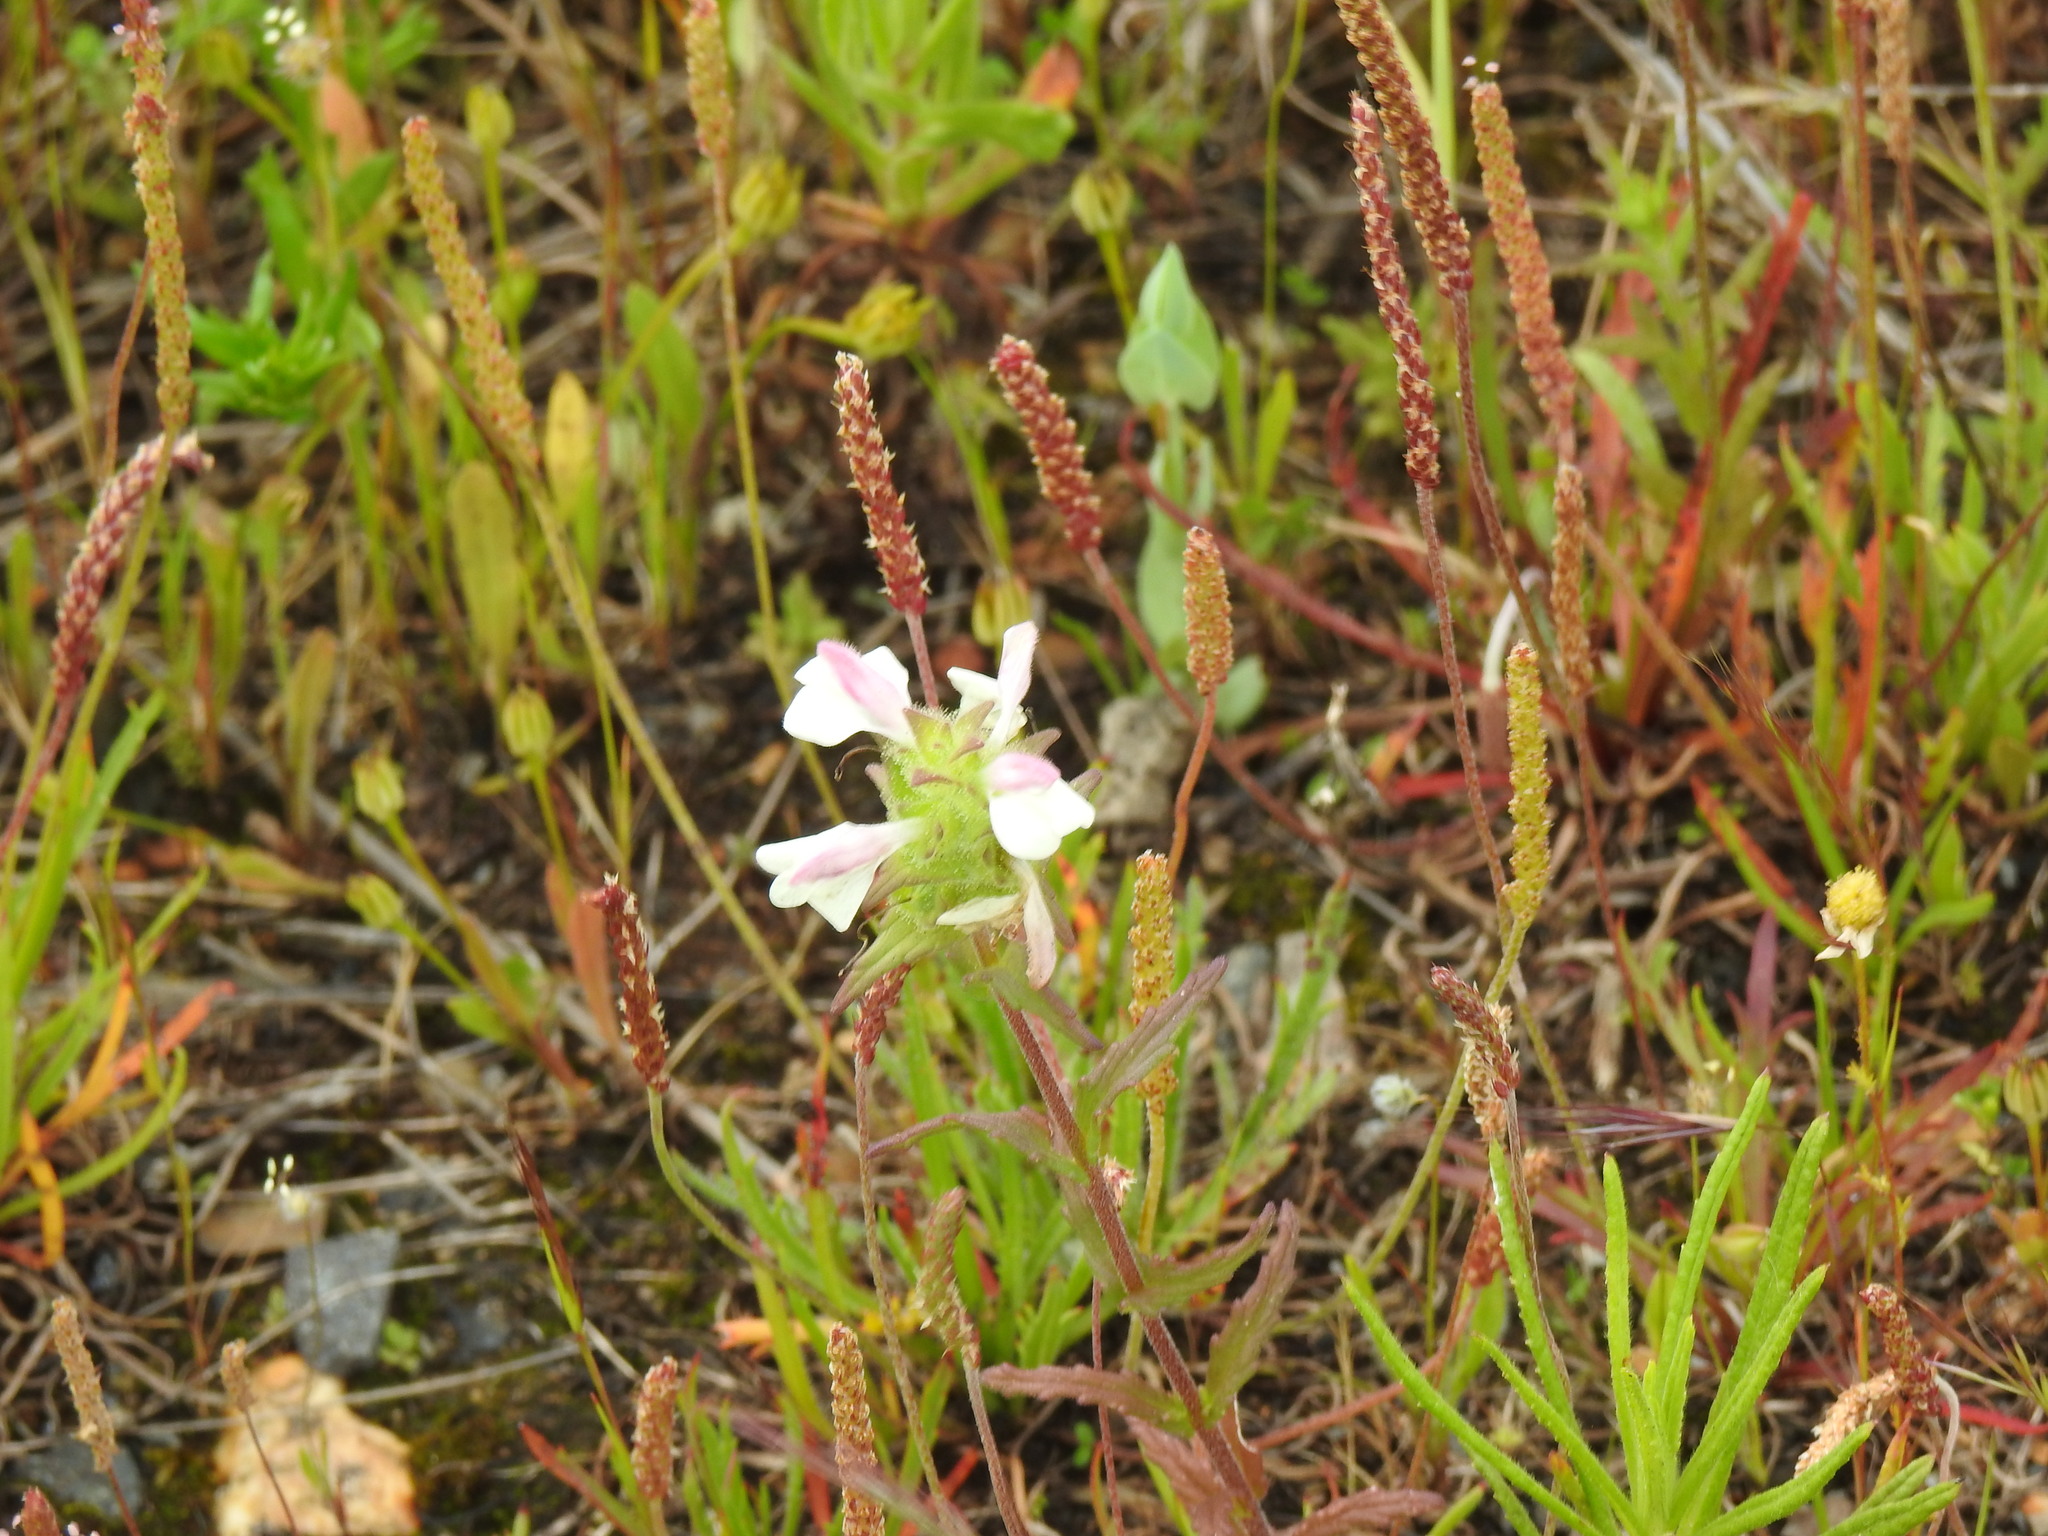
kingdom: Plantae
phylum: Tracheophyta
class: Magnoliopsida
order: Lamiales
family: Orobanchaceae
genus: Bellardia
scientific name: Bellardia trixago
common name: Mediterranean lineseed
